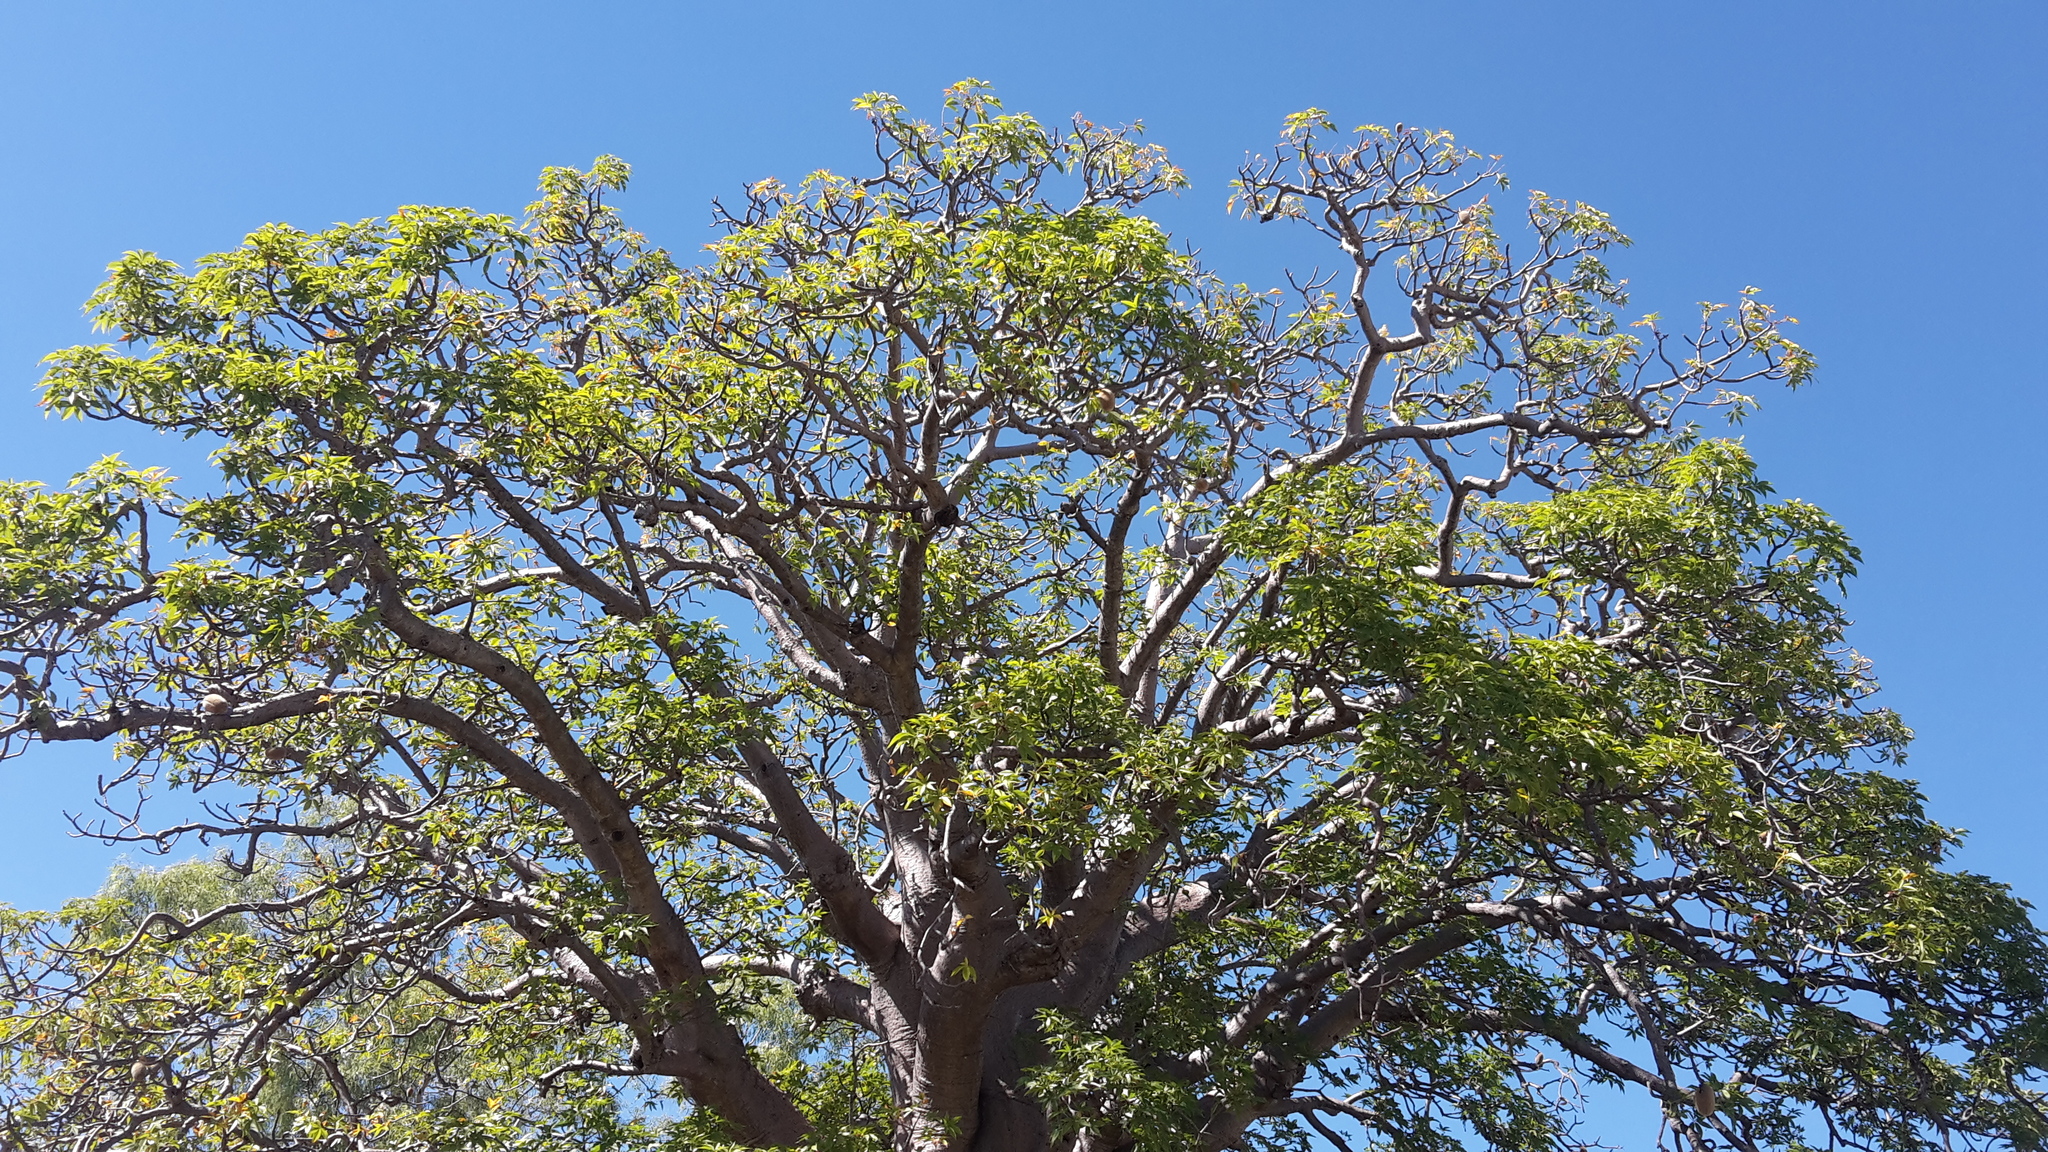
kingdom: Plantae
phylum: Tracheophyta
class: Magnoliopsida
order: Malvales
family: Malvaceae
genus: Adansonia
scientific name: Adansonia gregorii
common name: Australian baobab
